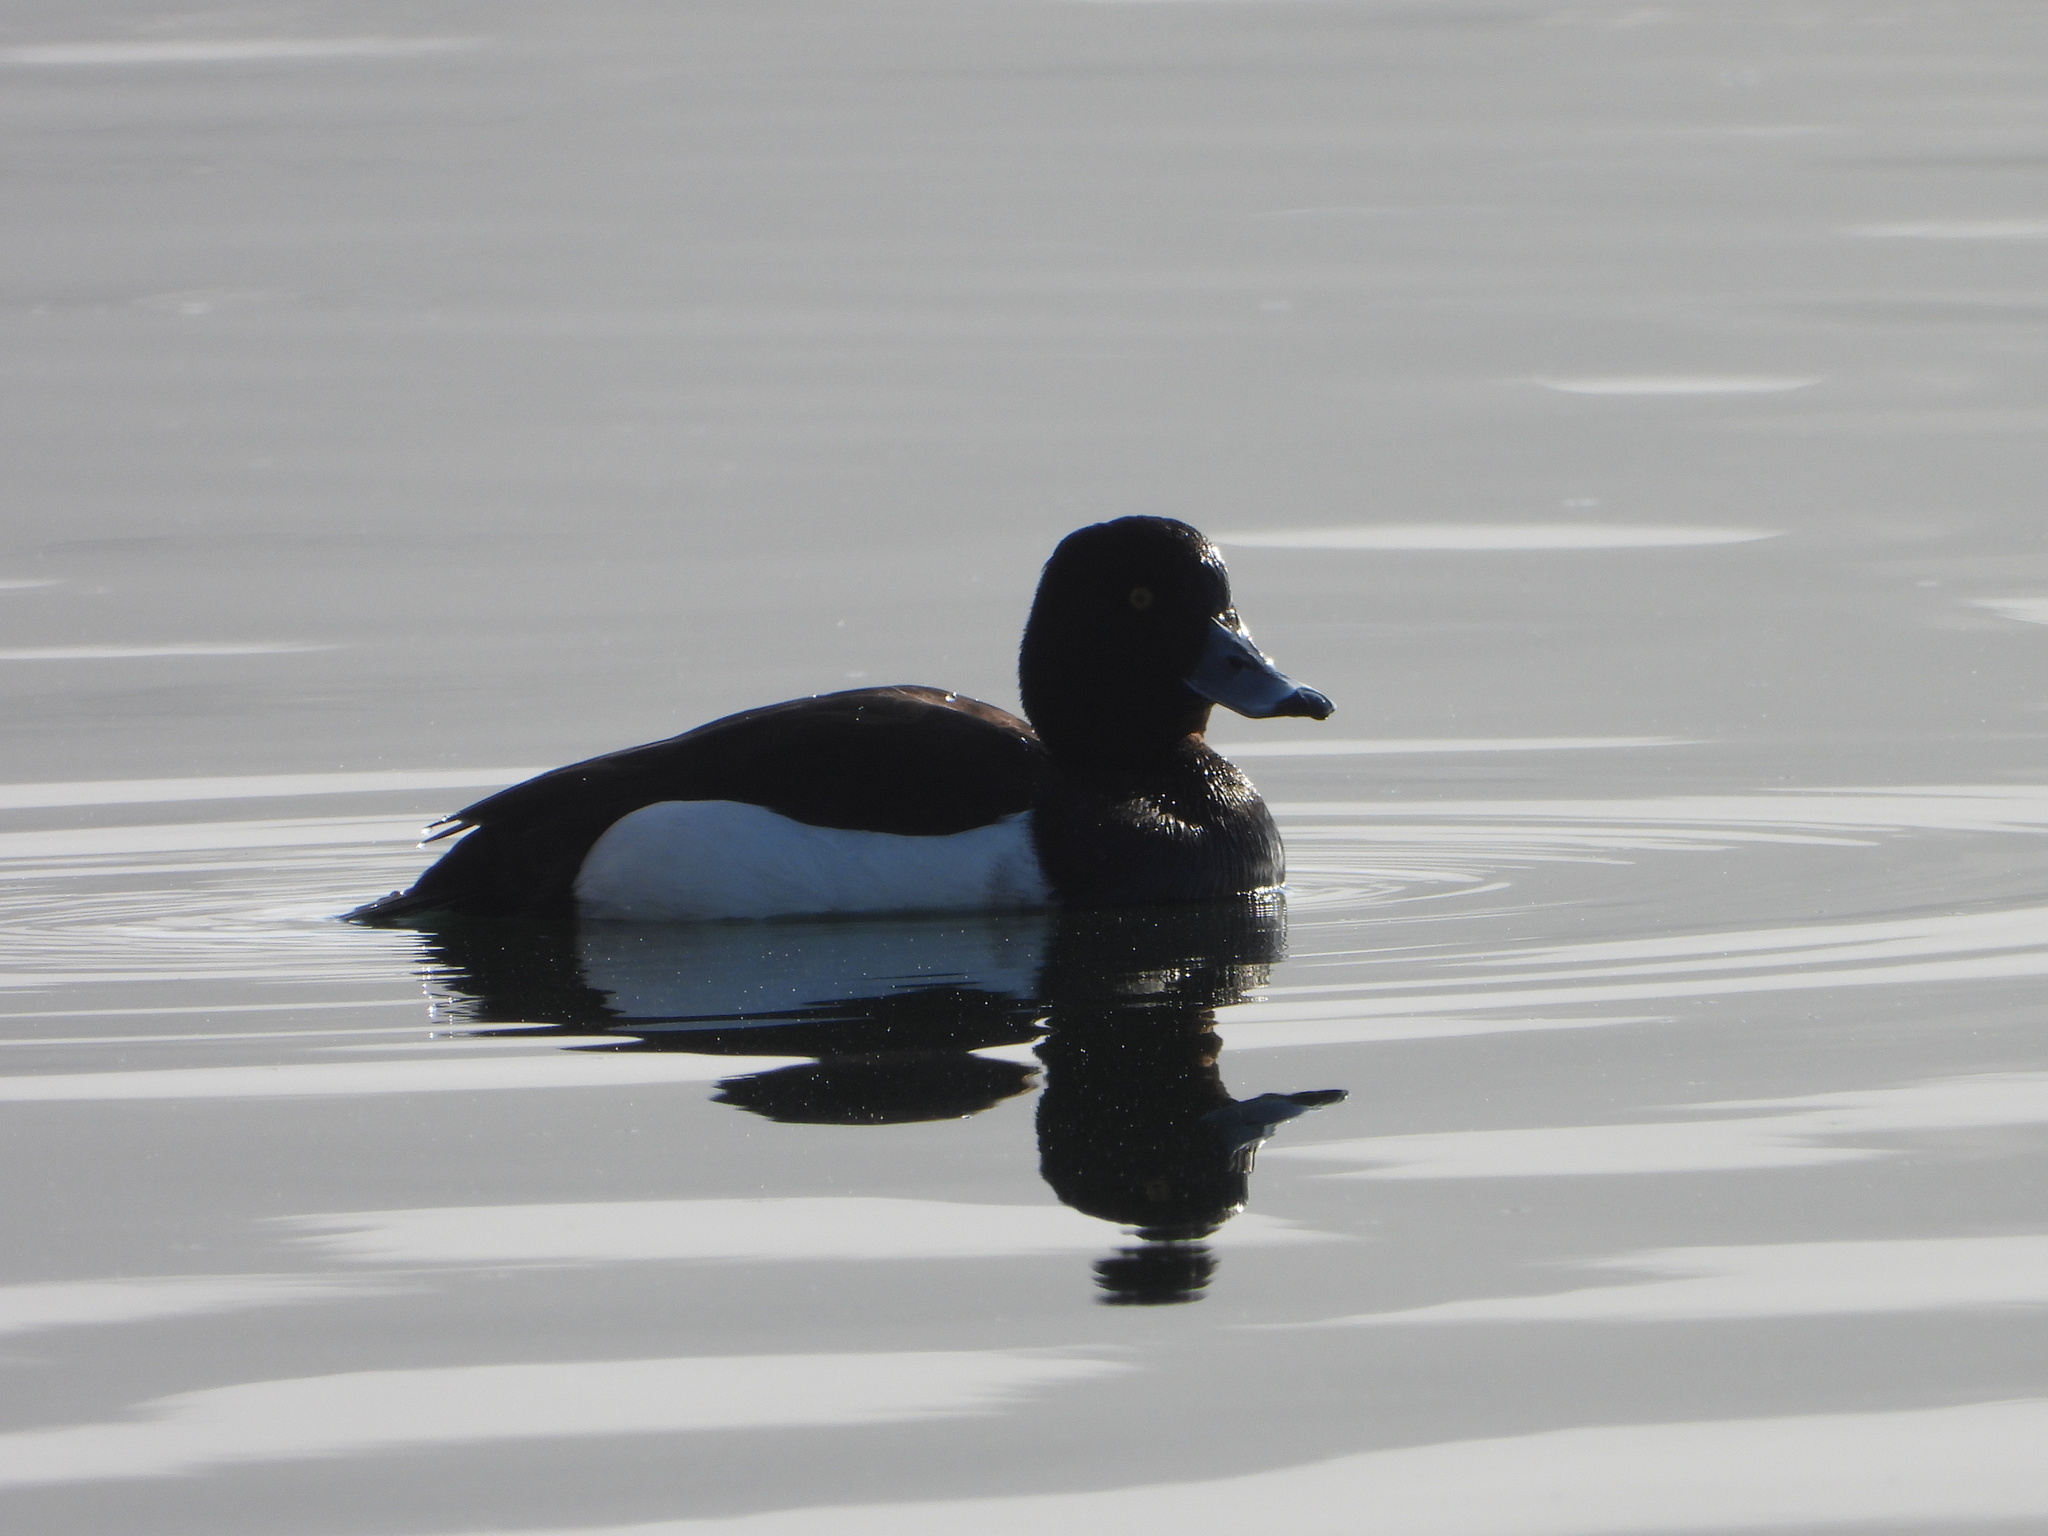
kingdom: Animalia
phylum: Chordata
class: Aves
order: Anseriformes
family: Anatidae
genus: Aythya
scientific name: Aythya fuligula
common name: Tufted duck
